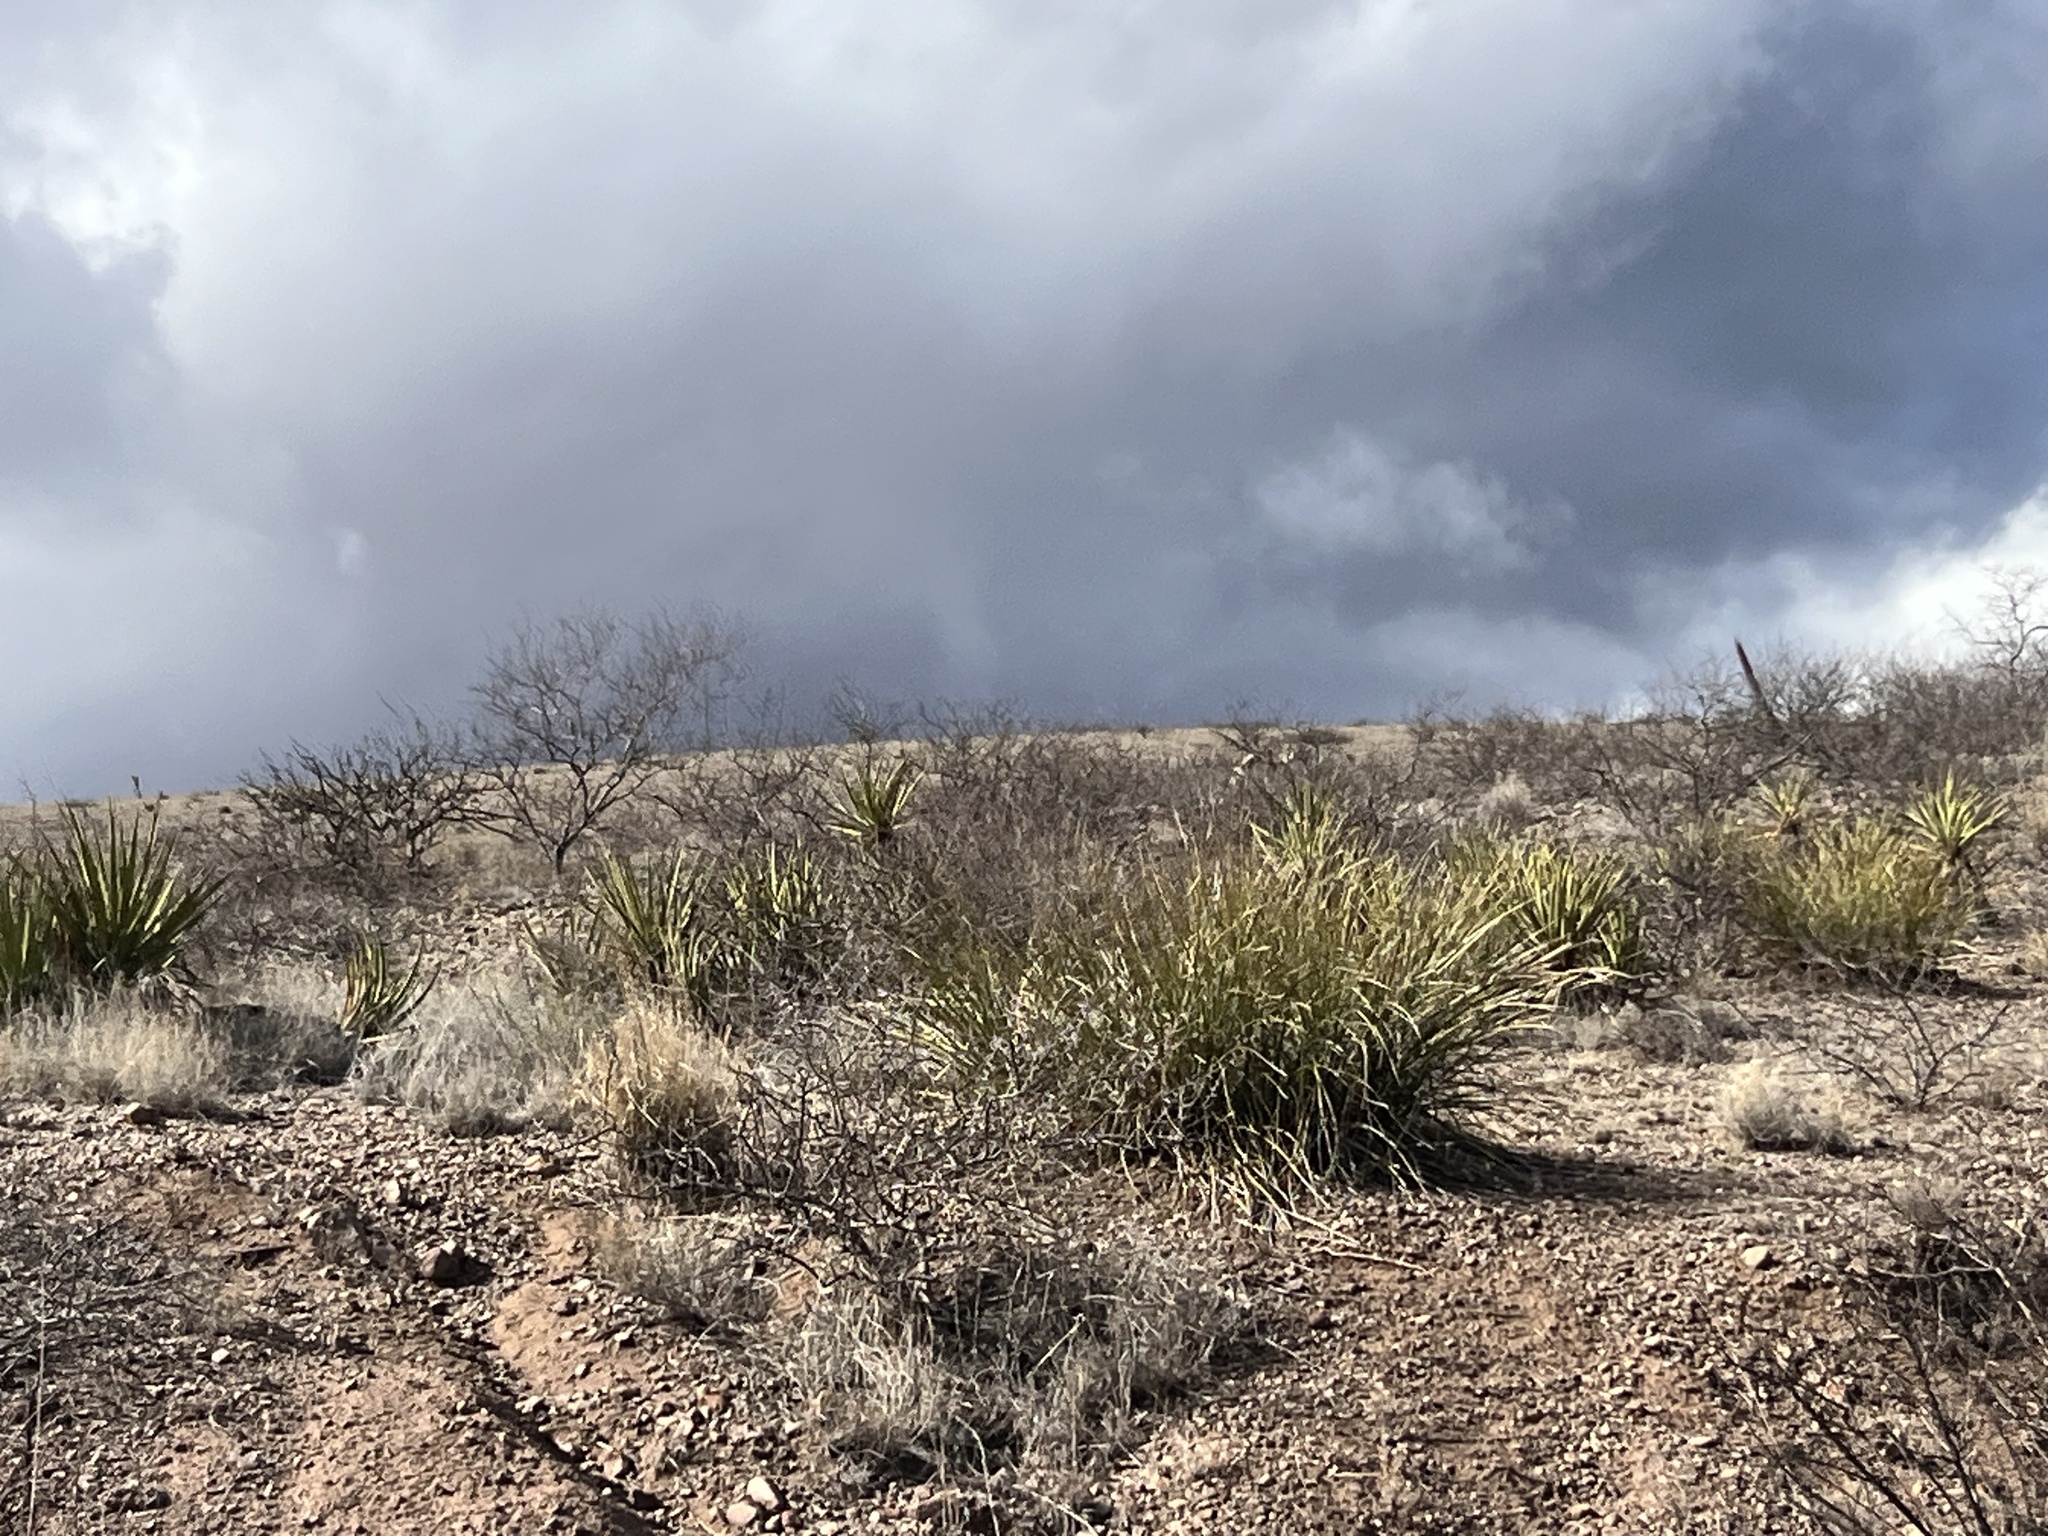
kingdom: Plantae
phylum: Tracheophyta
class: Liliopsida
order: Asparagales
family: Asparagaceae
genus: Nolina
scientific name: Nolina microcarpa
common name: Bear-grass
